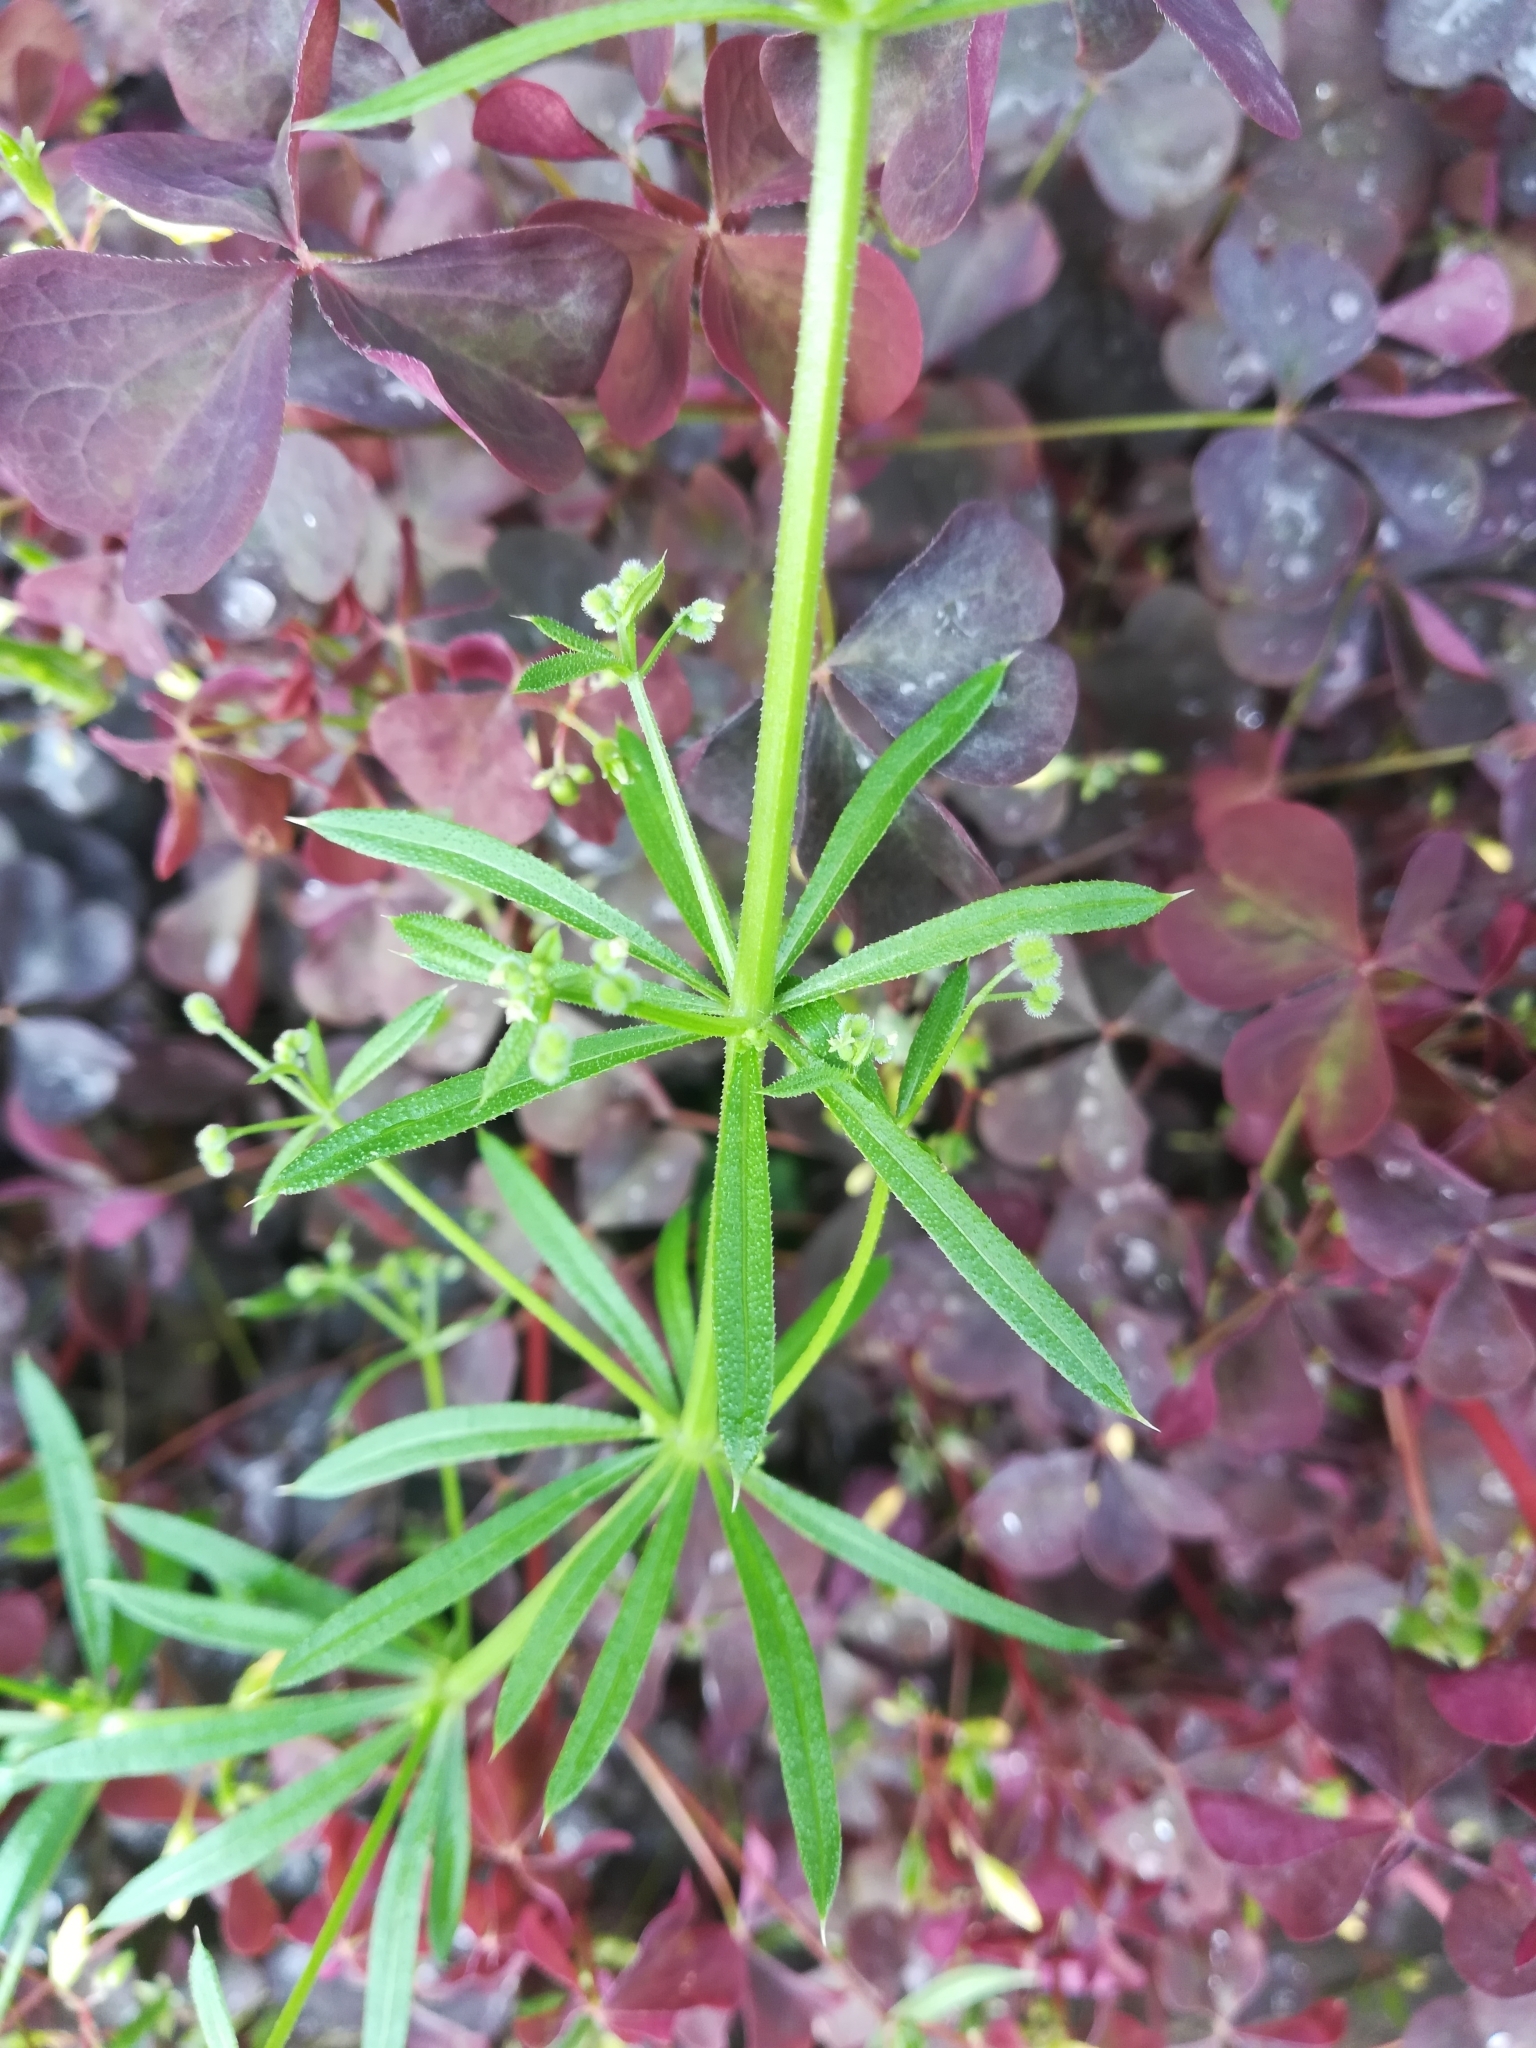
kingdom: Plantae
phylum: Tracheophyta
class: Magnoliopsida
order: Gentianales
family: Rubiaceae
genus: Galium
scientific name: Galium
